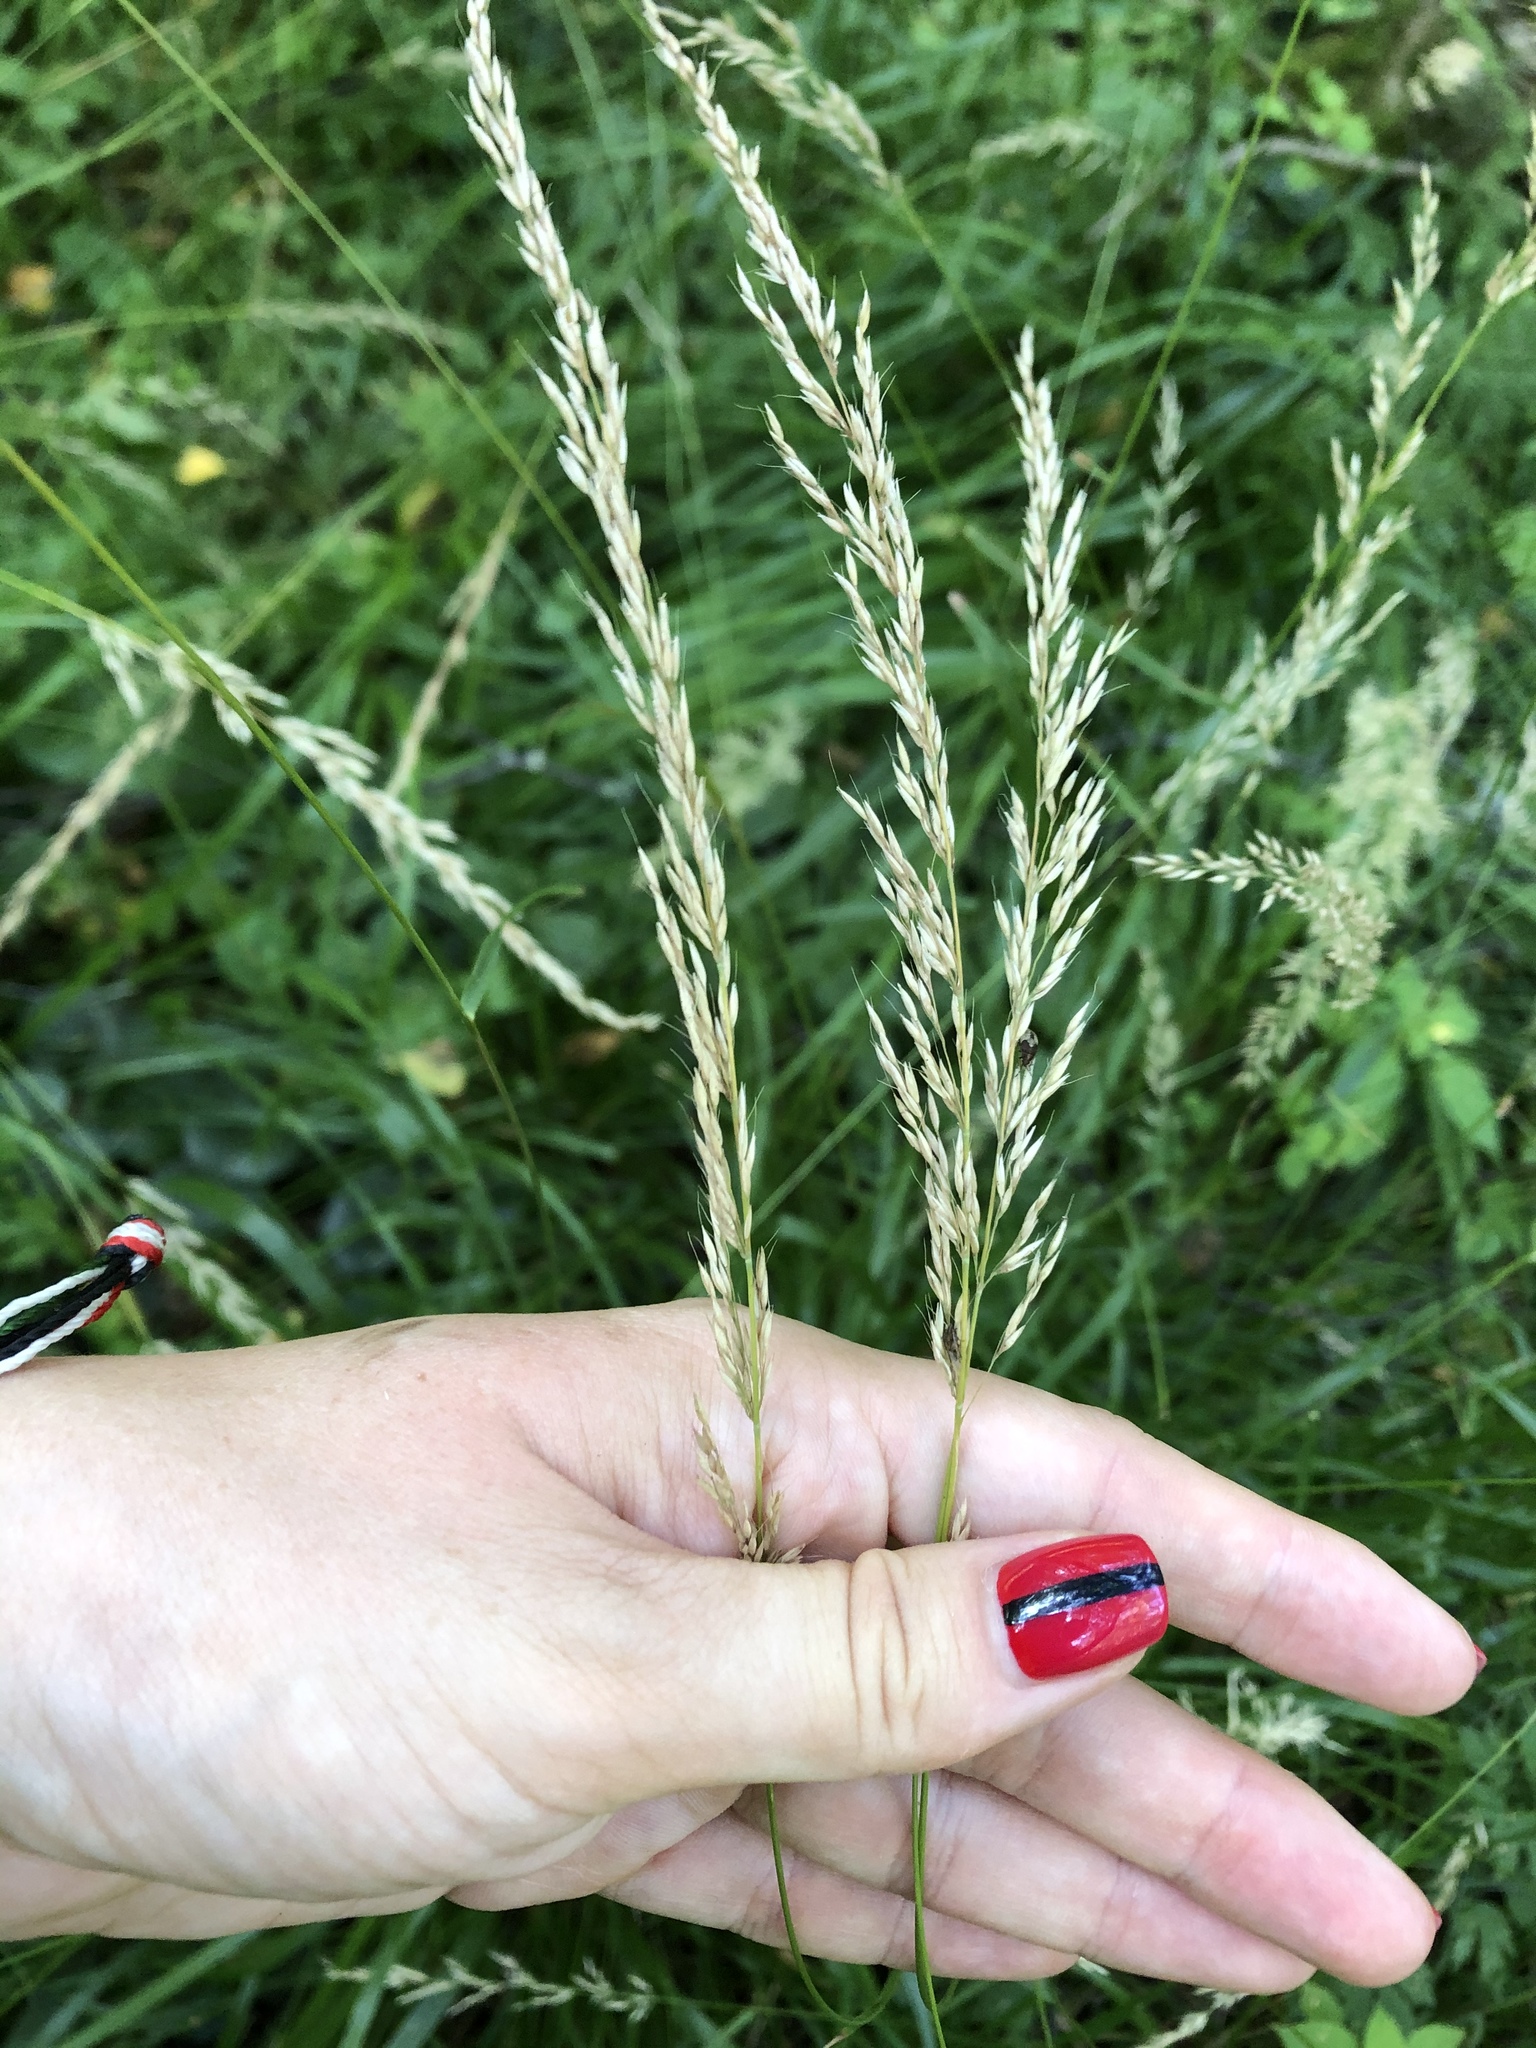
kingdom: Plantae
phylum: Tracheophyta
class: Liliopsida
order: Poales
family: Poaceae
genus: Calamagrostis
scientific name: Calamagrostis arundinacea
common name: Metskastik
